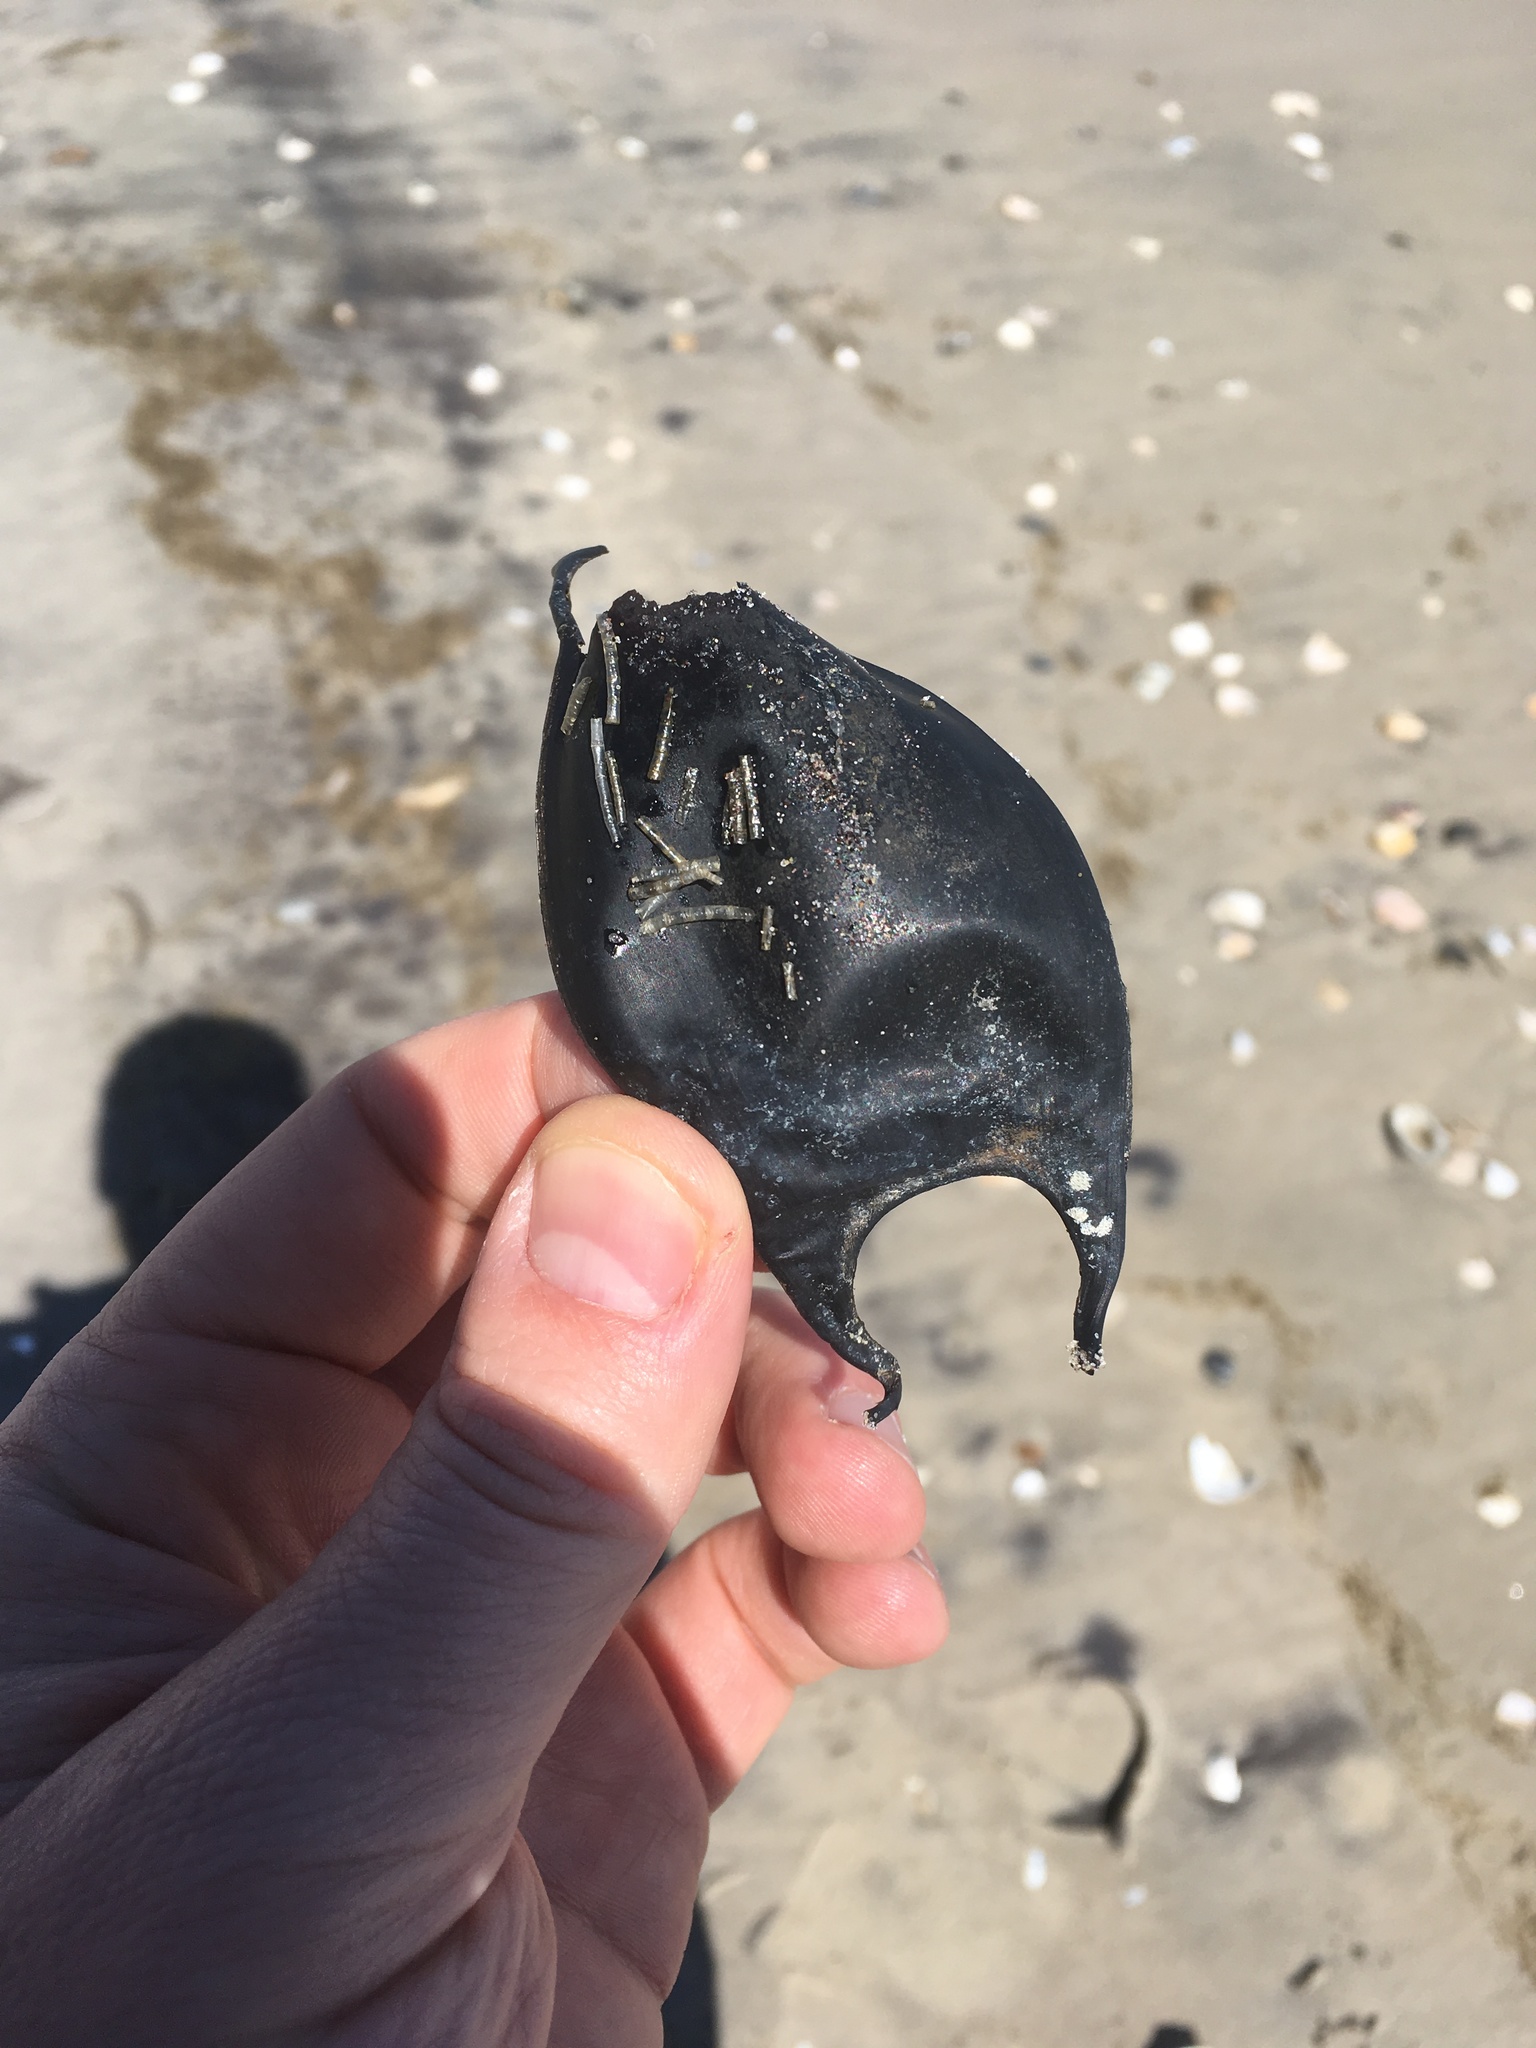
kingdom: Animalia
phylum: Chordata
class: Elasmobranchii
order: Rajiformes
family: Rajidae
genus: Raja
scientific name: Raja eglanteria
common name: Clearnose skate
